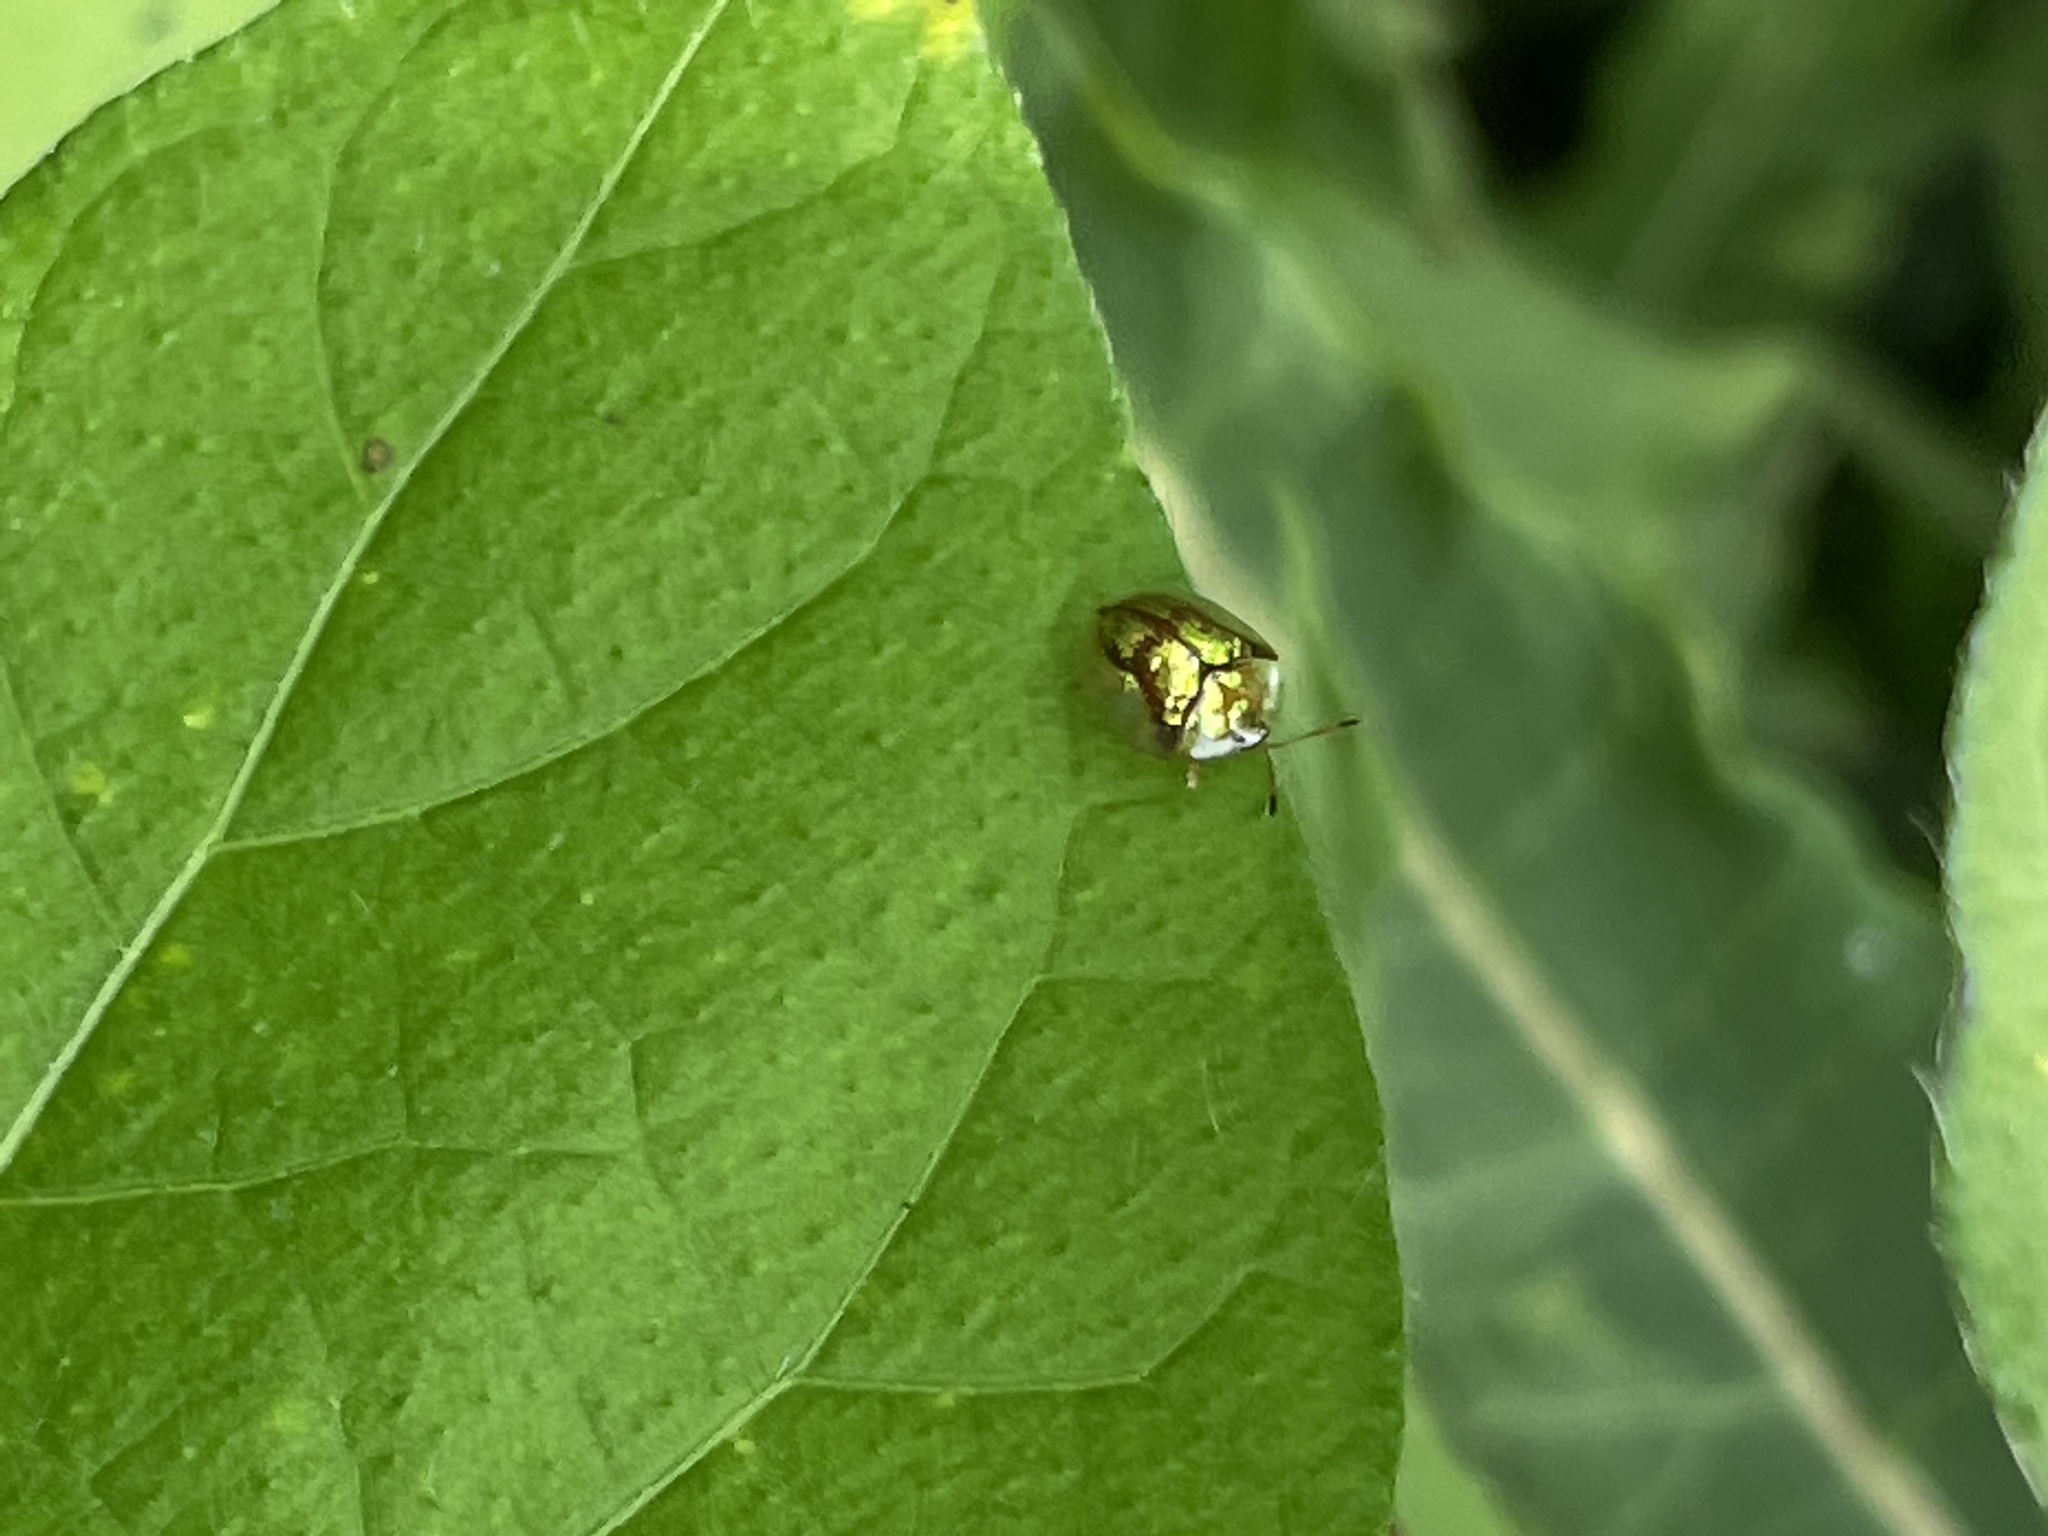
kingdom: Animalia
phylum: Arthropoda
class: Insecta
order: Coleoptera
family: Chrysomelidae
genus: Deloyala
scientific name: Deloyala guttata
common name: Mottled tortoise beetle
